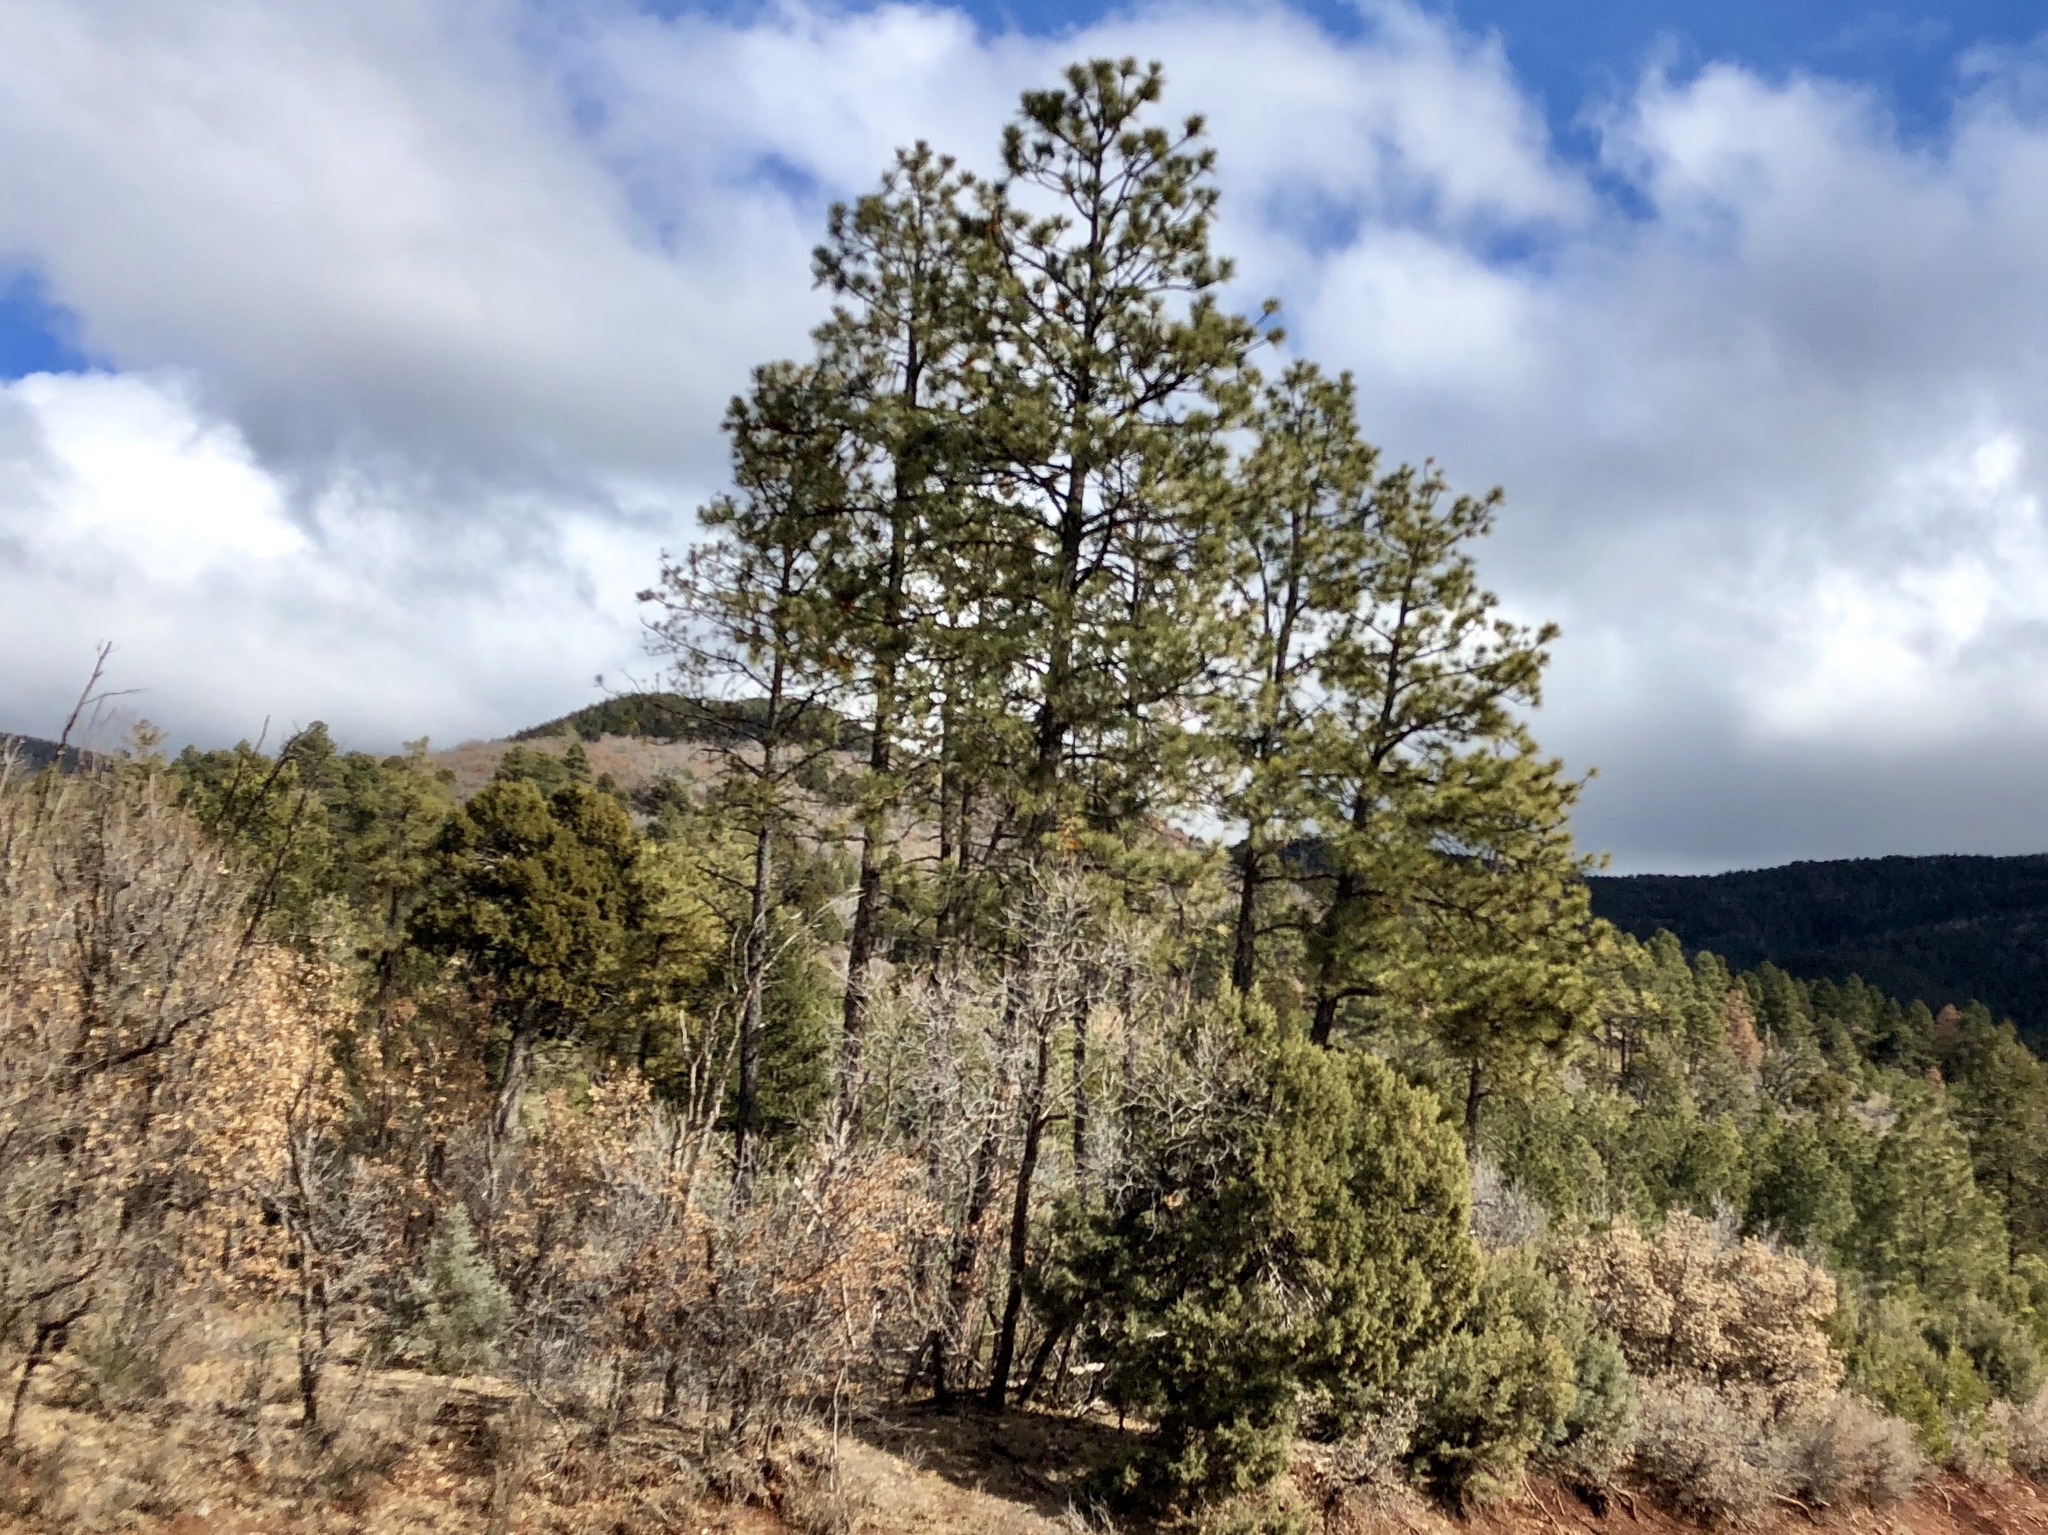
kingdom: Plantae
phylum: Tracheophyta
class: Pinopsida
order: Pinales
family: Pinaceae
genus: Pinus
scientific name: Pinus ponderosa
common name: Western yellow-pine
